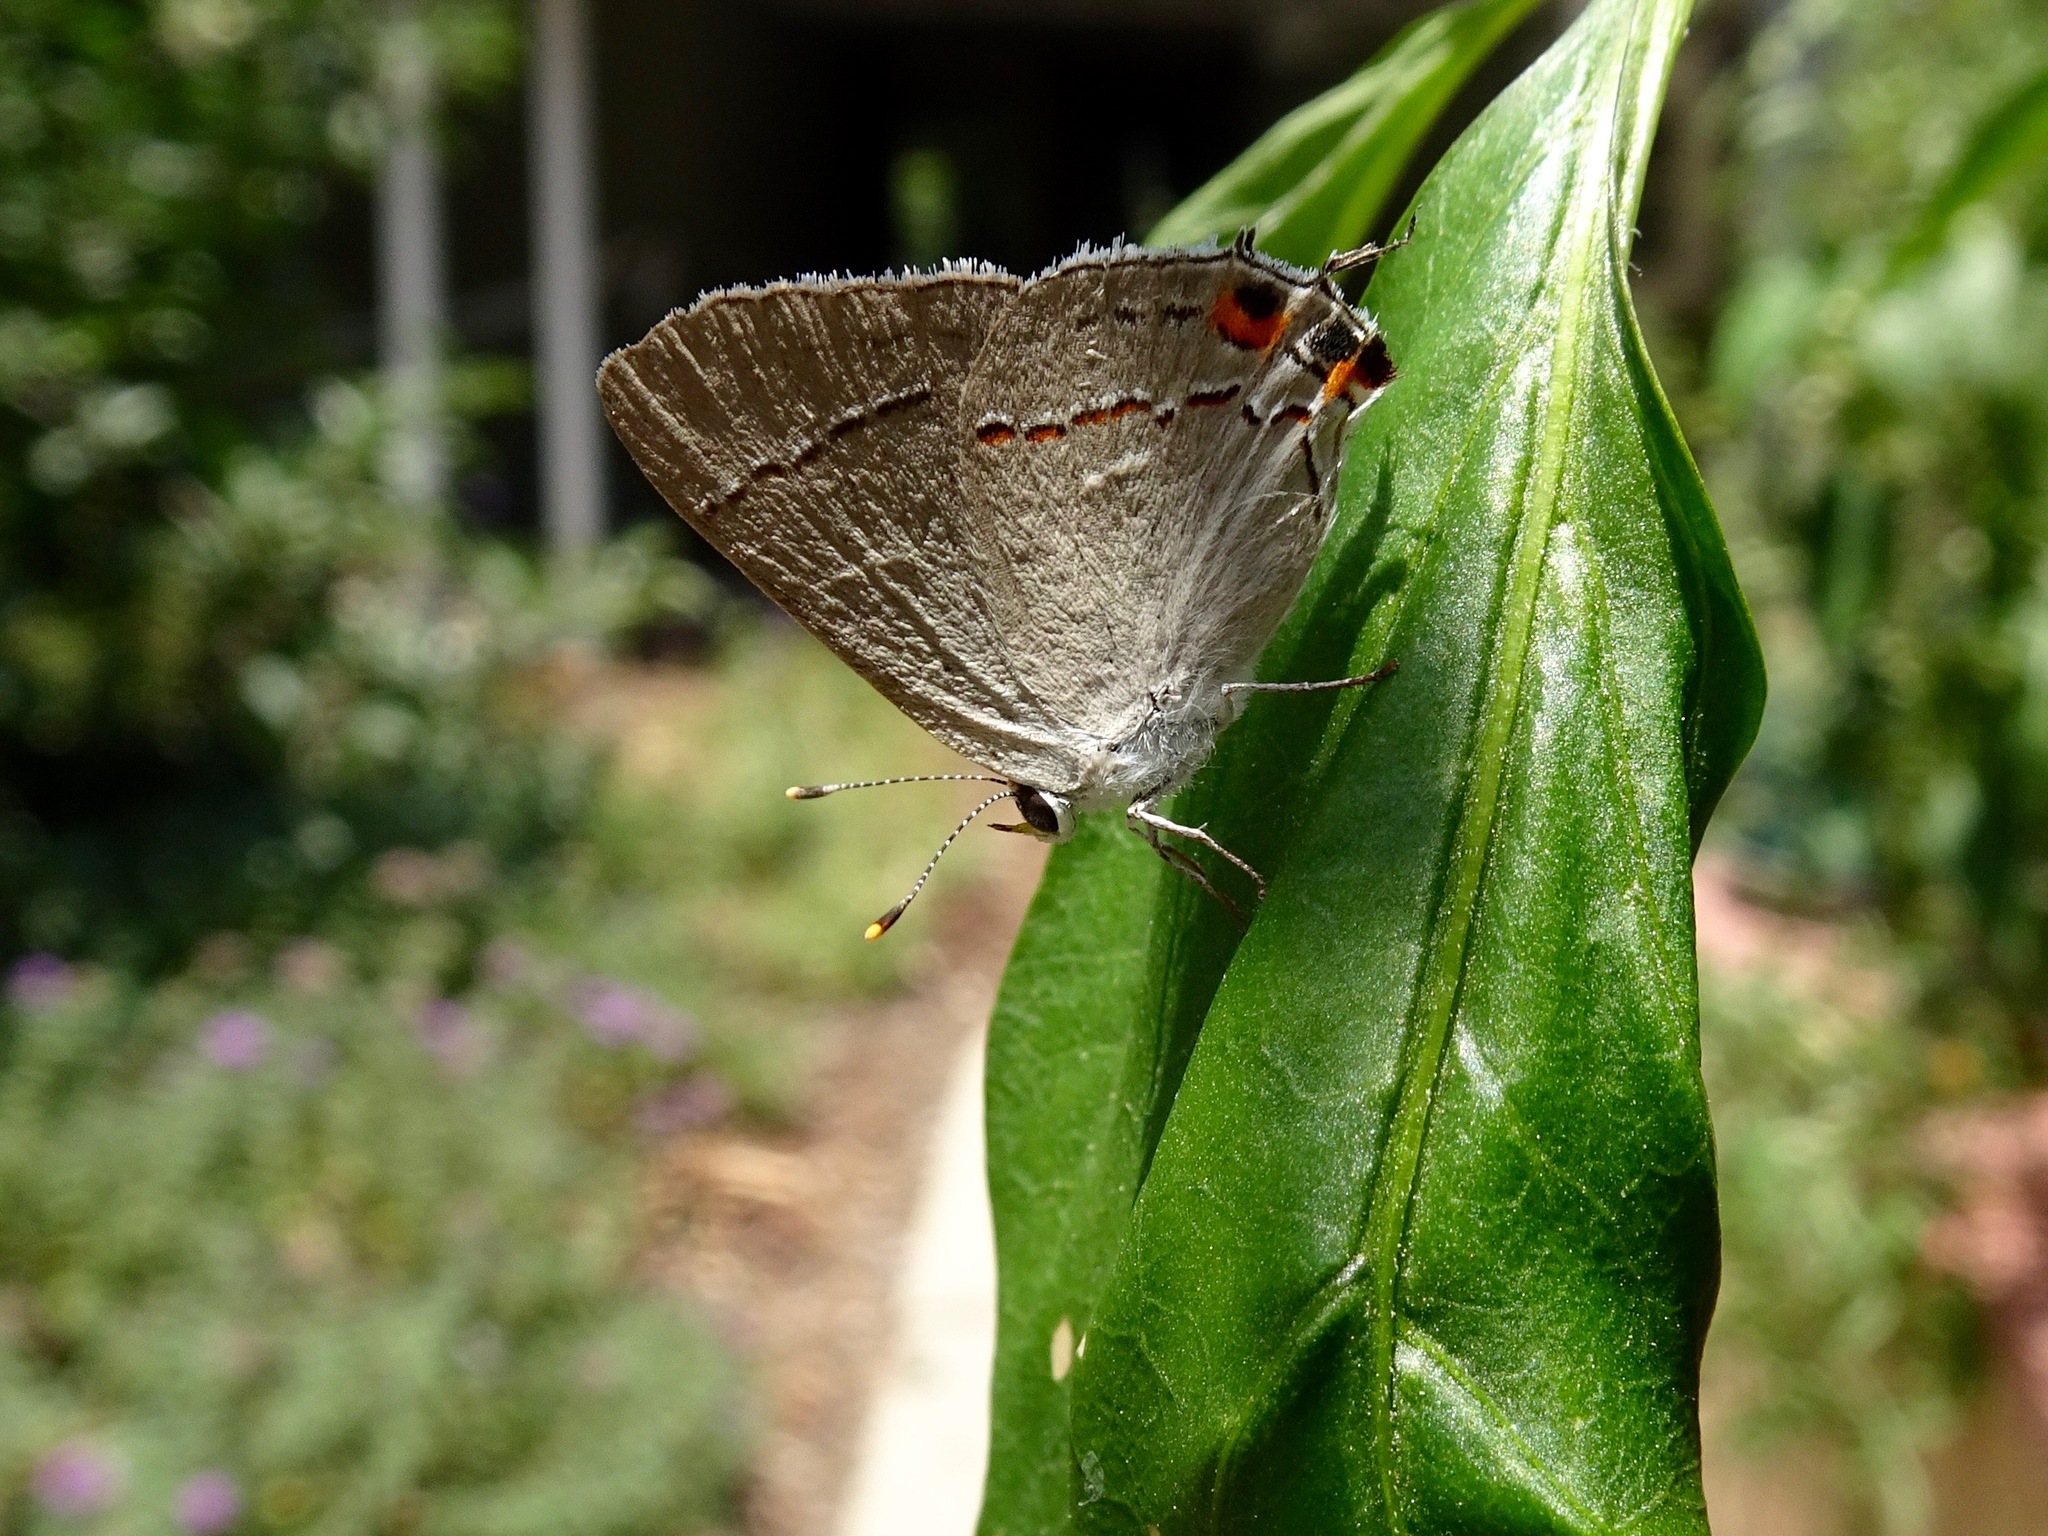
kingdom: Animalia
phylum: Arthropoda
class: Insecta
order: Lepidoptera
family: Lycaenidae
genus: Strymon
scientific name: Strymon melinus
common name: Gray hairstreak
